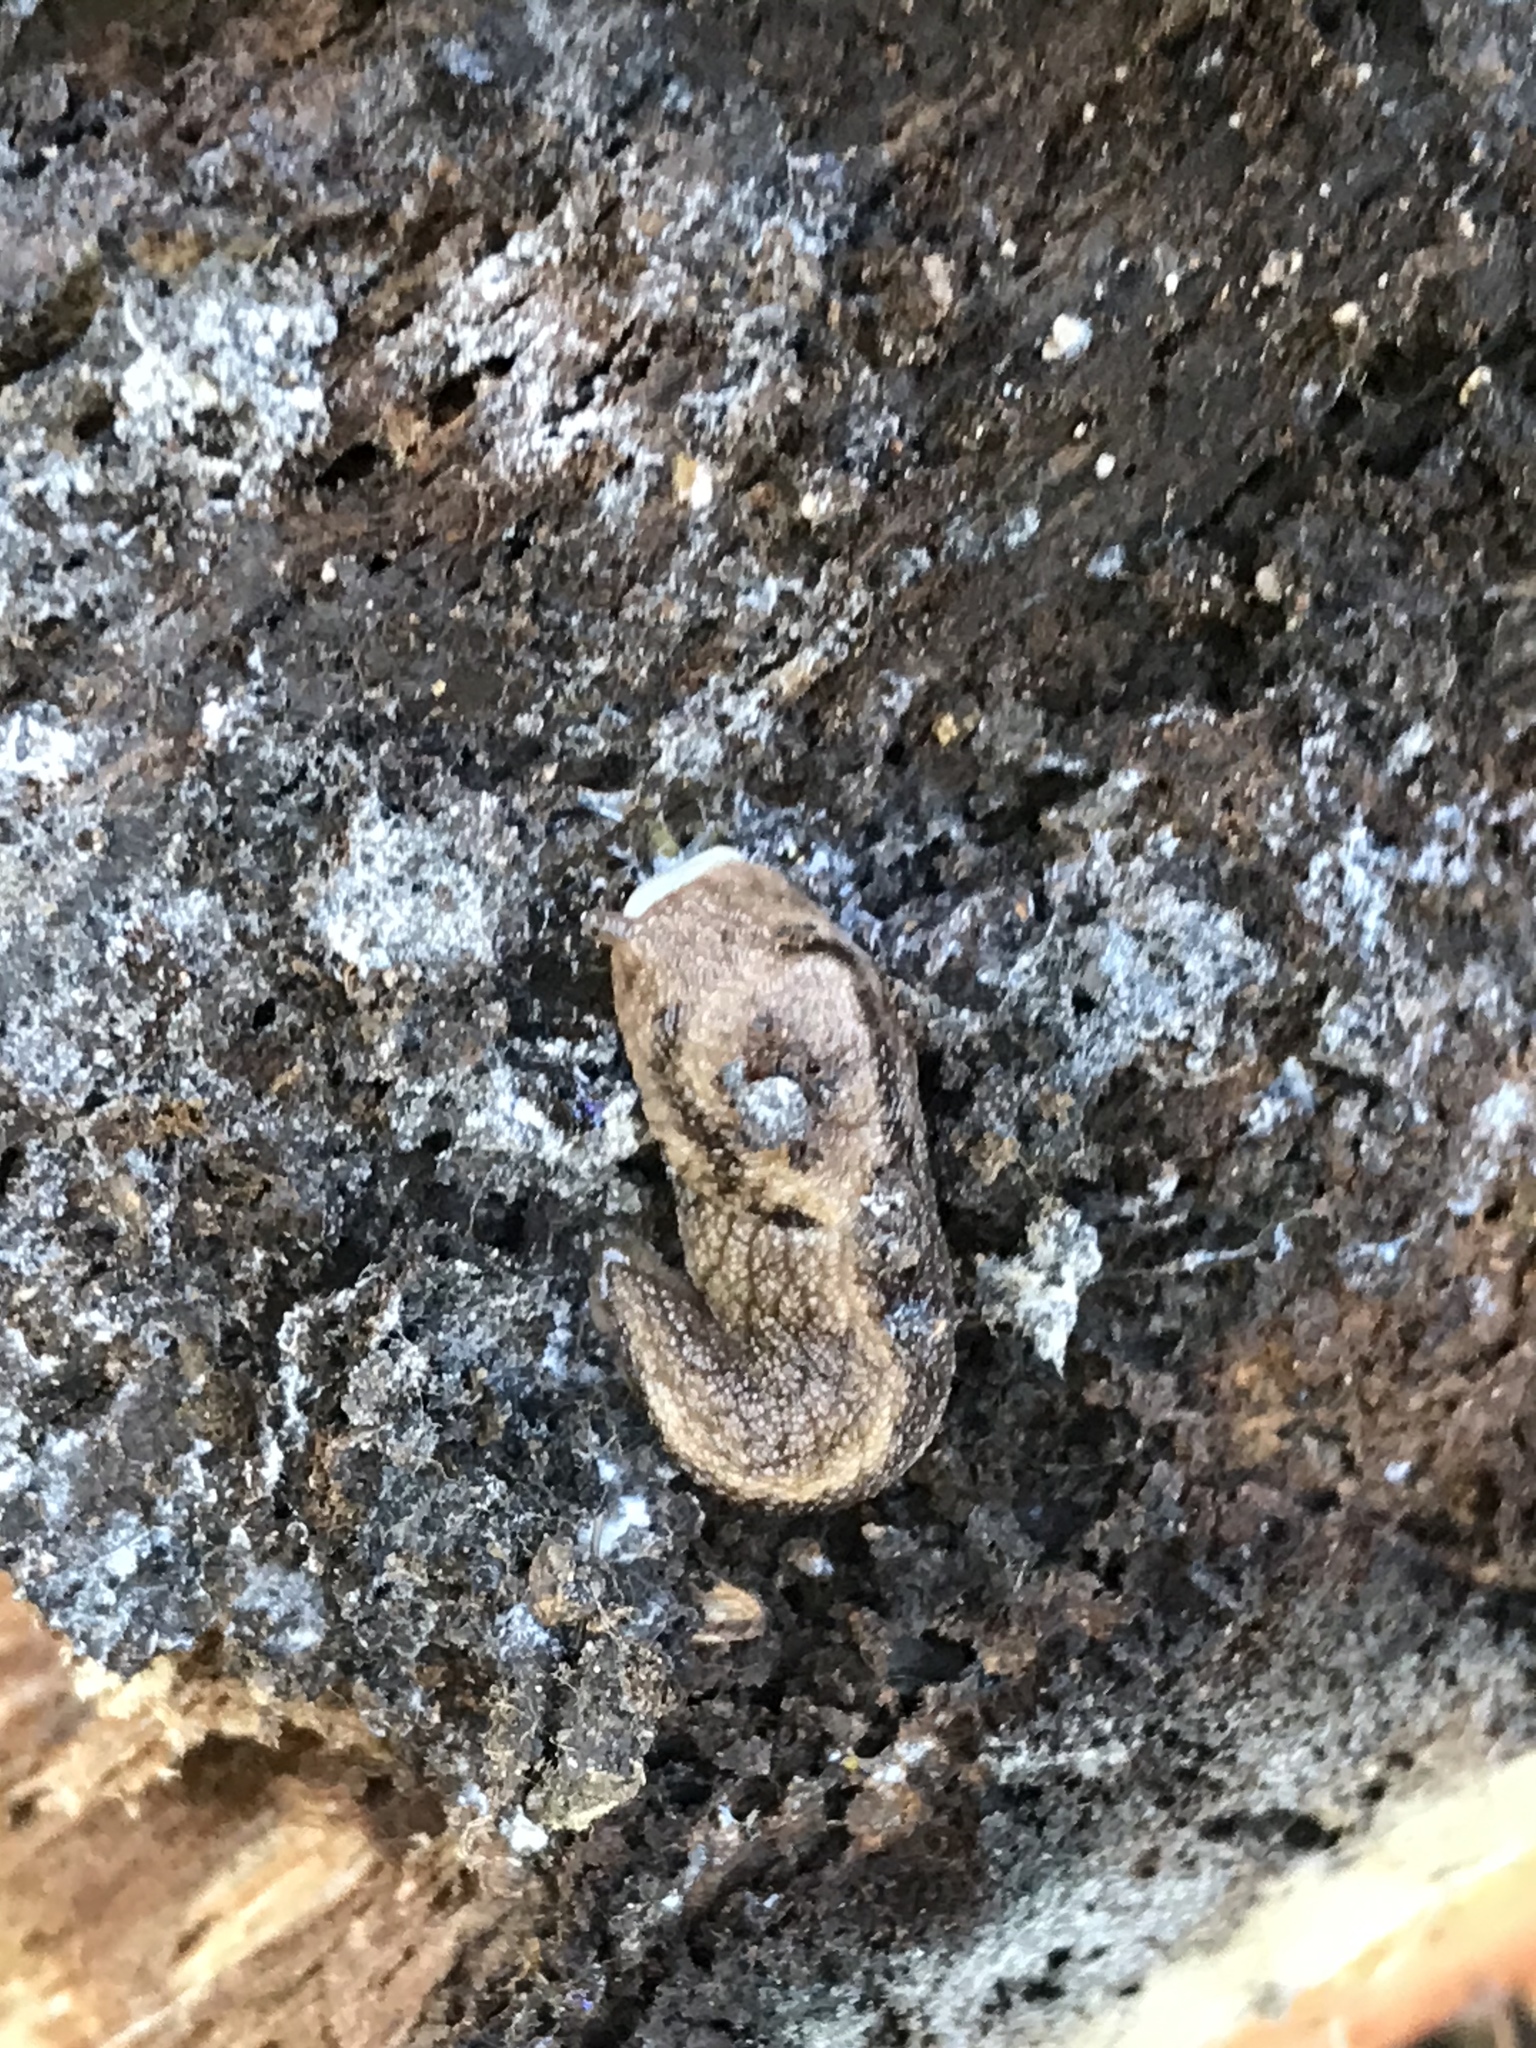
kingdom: Animalia
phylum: Mollusca
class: Gastropoda
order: Stylommatophora
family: Ariolimacidae
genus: Prophysaon
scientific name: Prophysaon andersonii
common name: Reticulate taildropper
